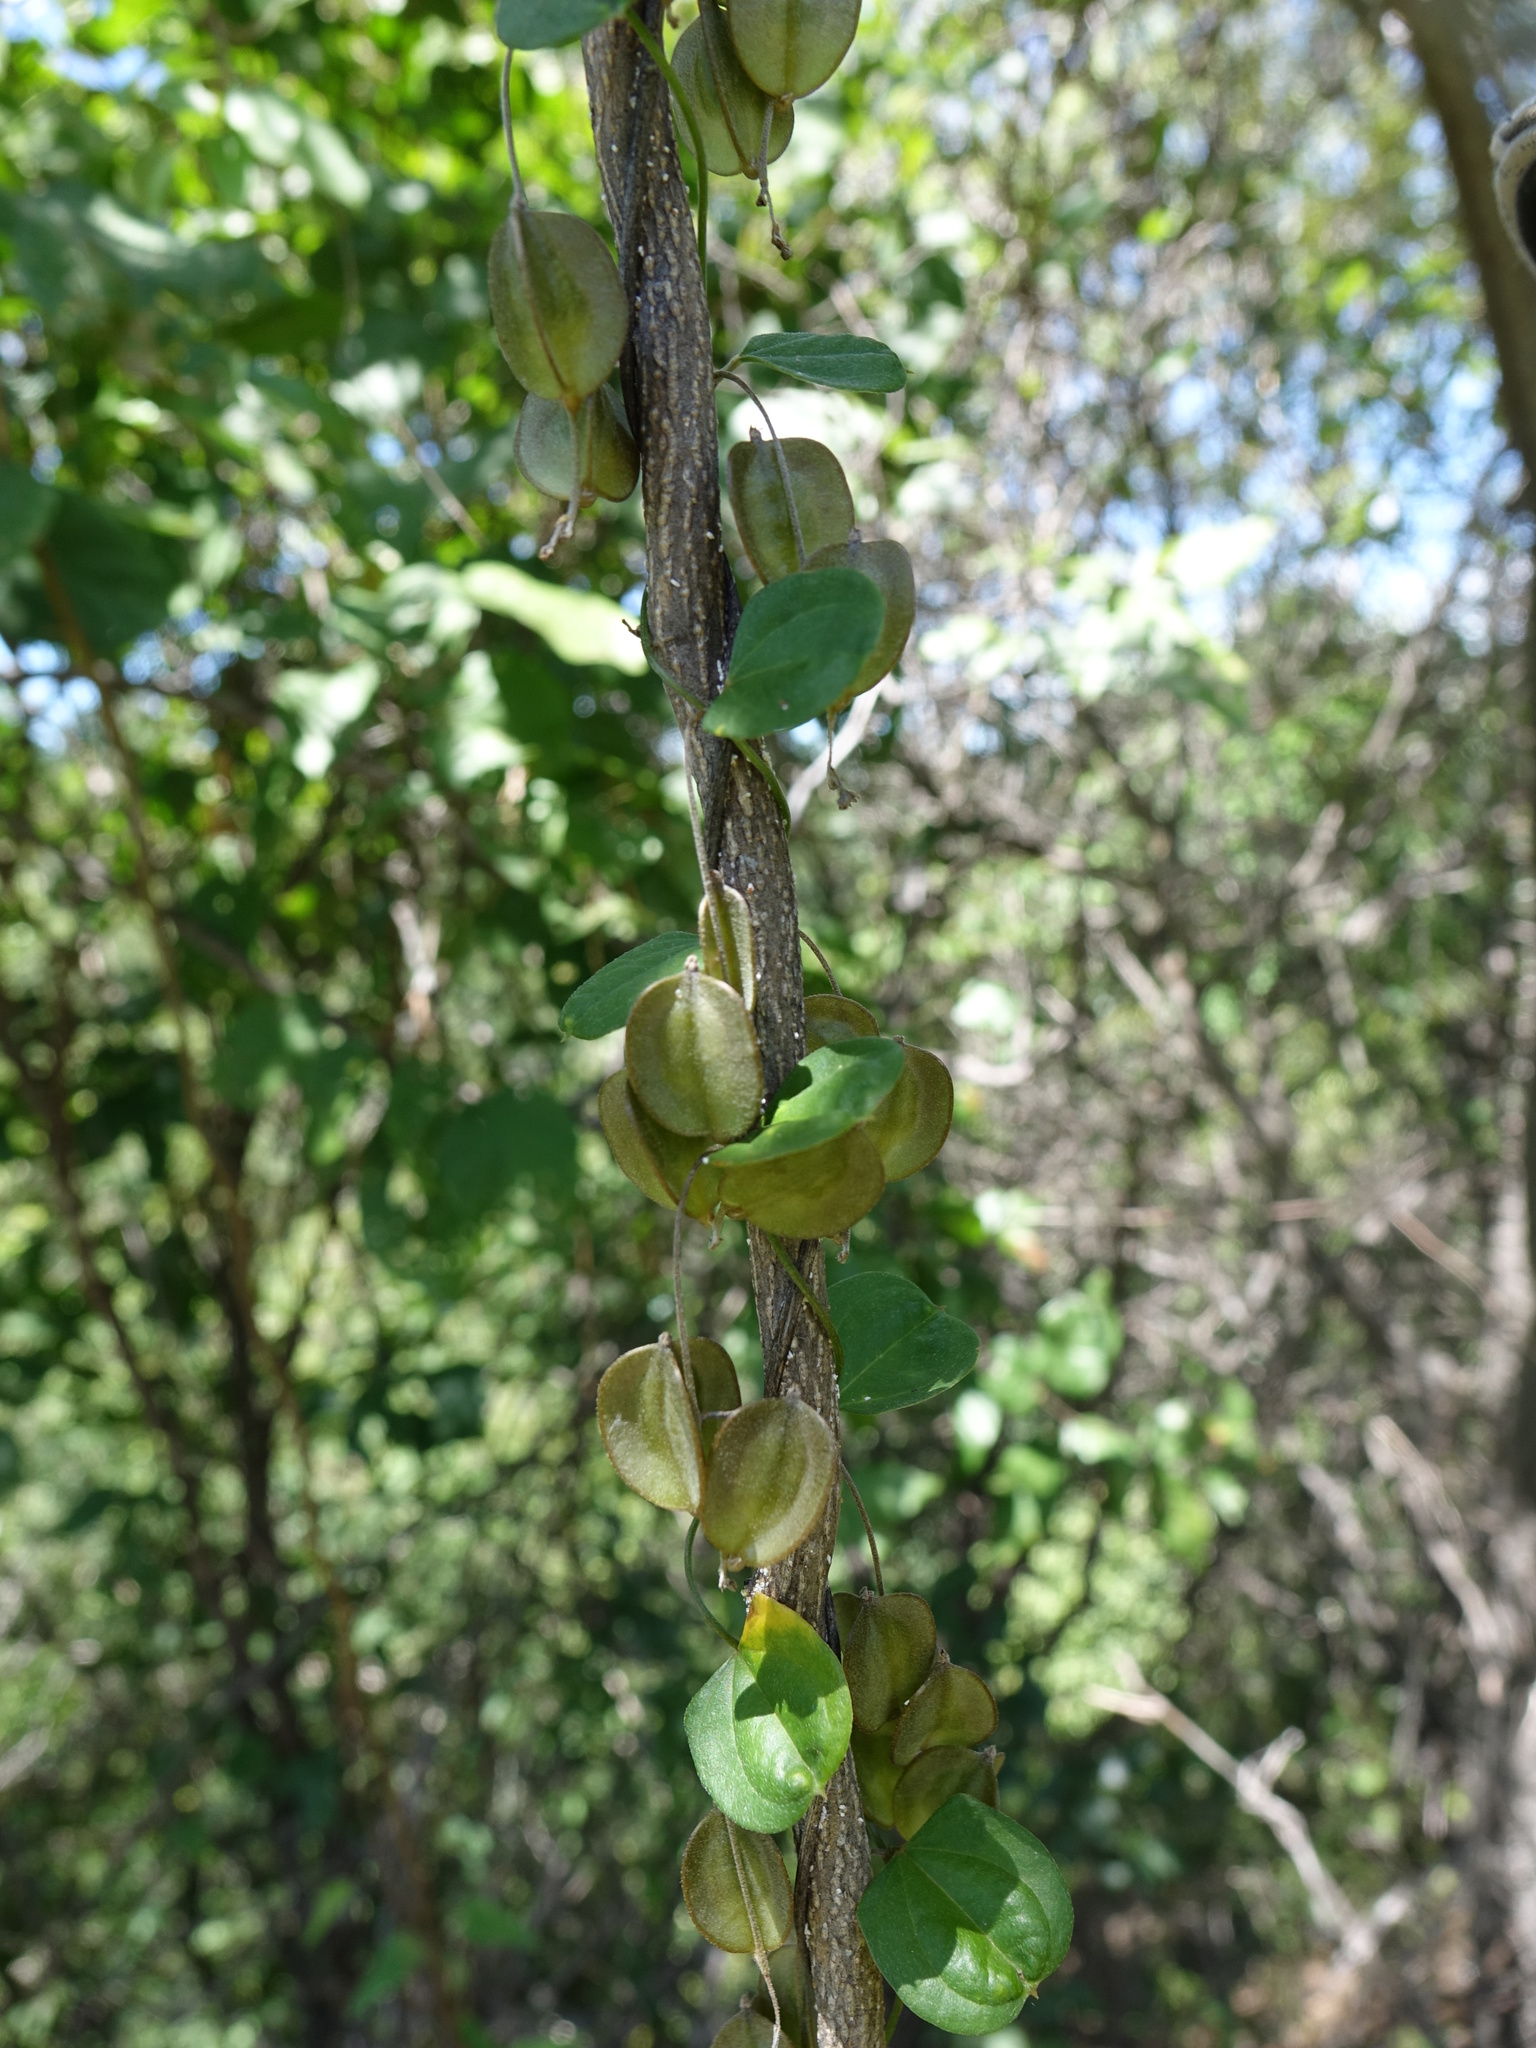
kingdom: Plantae
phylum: Tracheophyta
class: Liliopsida
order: Dioscoreales
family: Dioscoreaceae
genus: Dioscorea
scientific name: Dioscorea fandra
